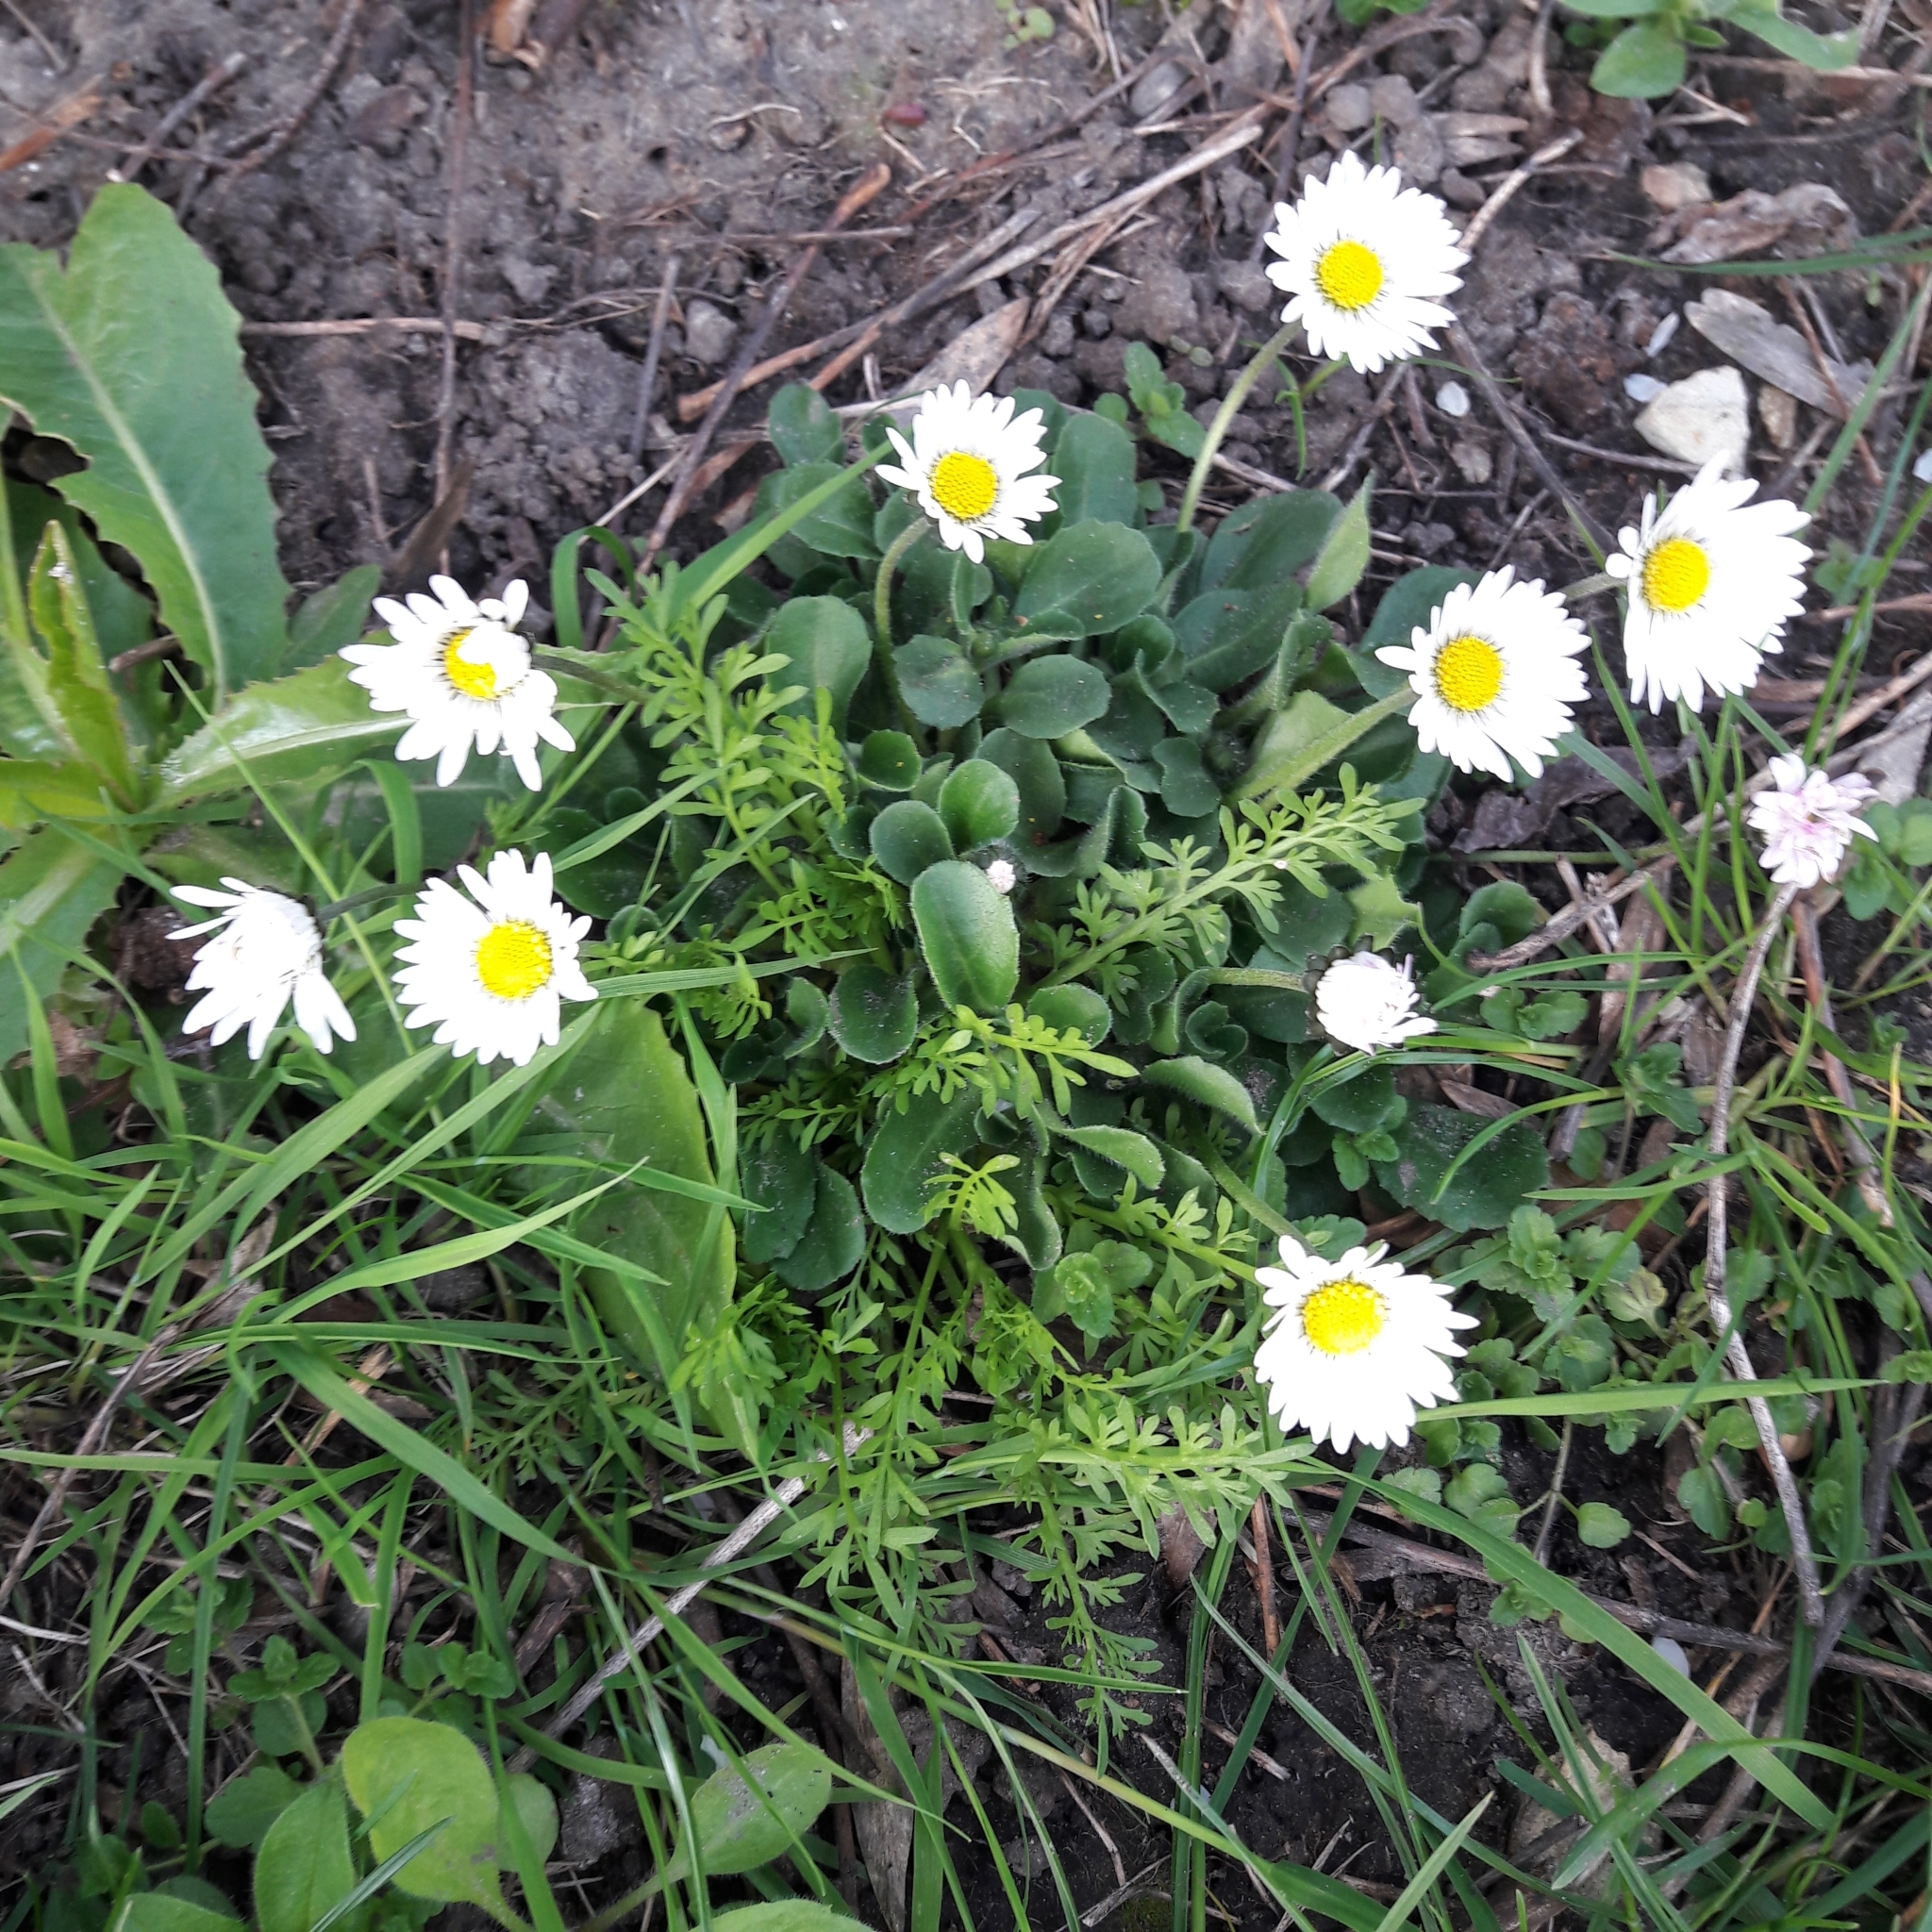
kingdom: Plantae
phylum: Tracheophyta
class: Magnoliopsida
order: Asterales
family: Asteraceae
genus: Bellis
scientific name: Bellis perennis
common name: Lawndaisy
